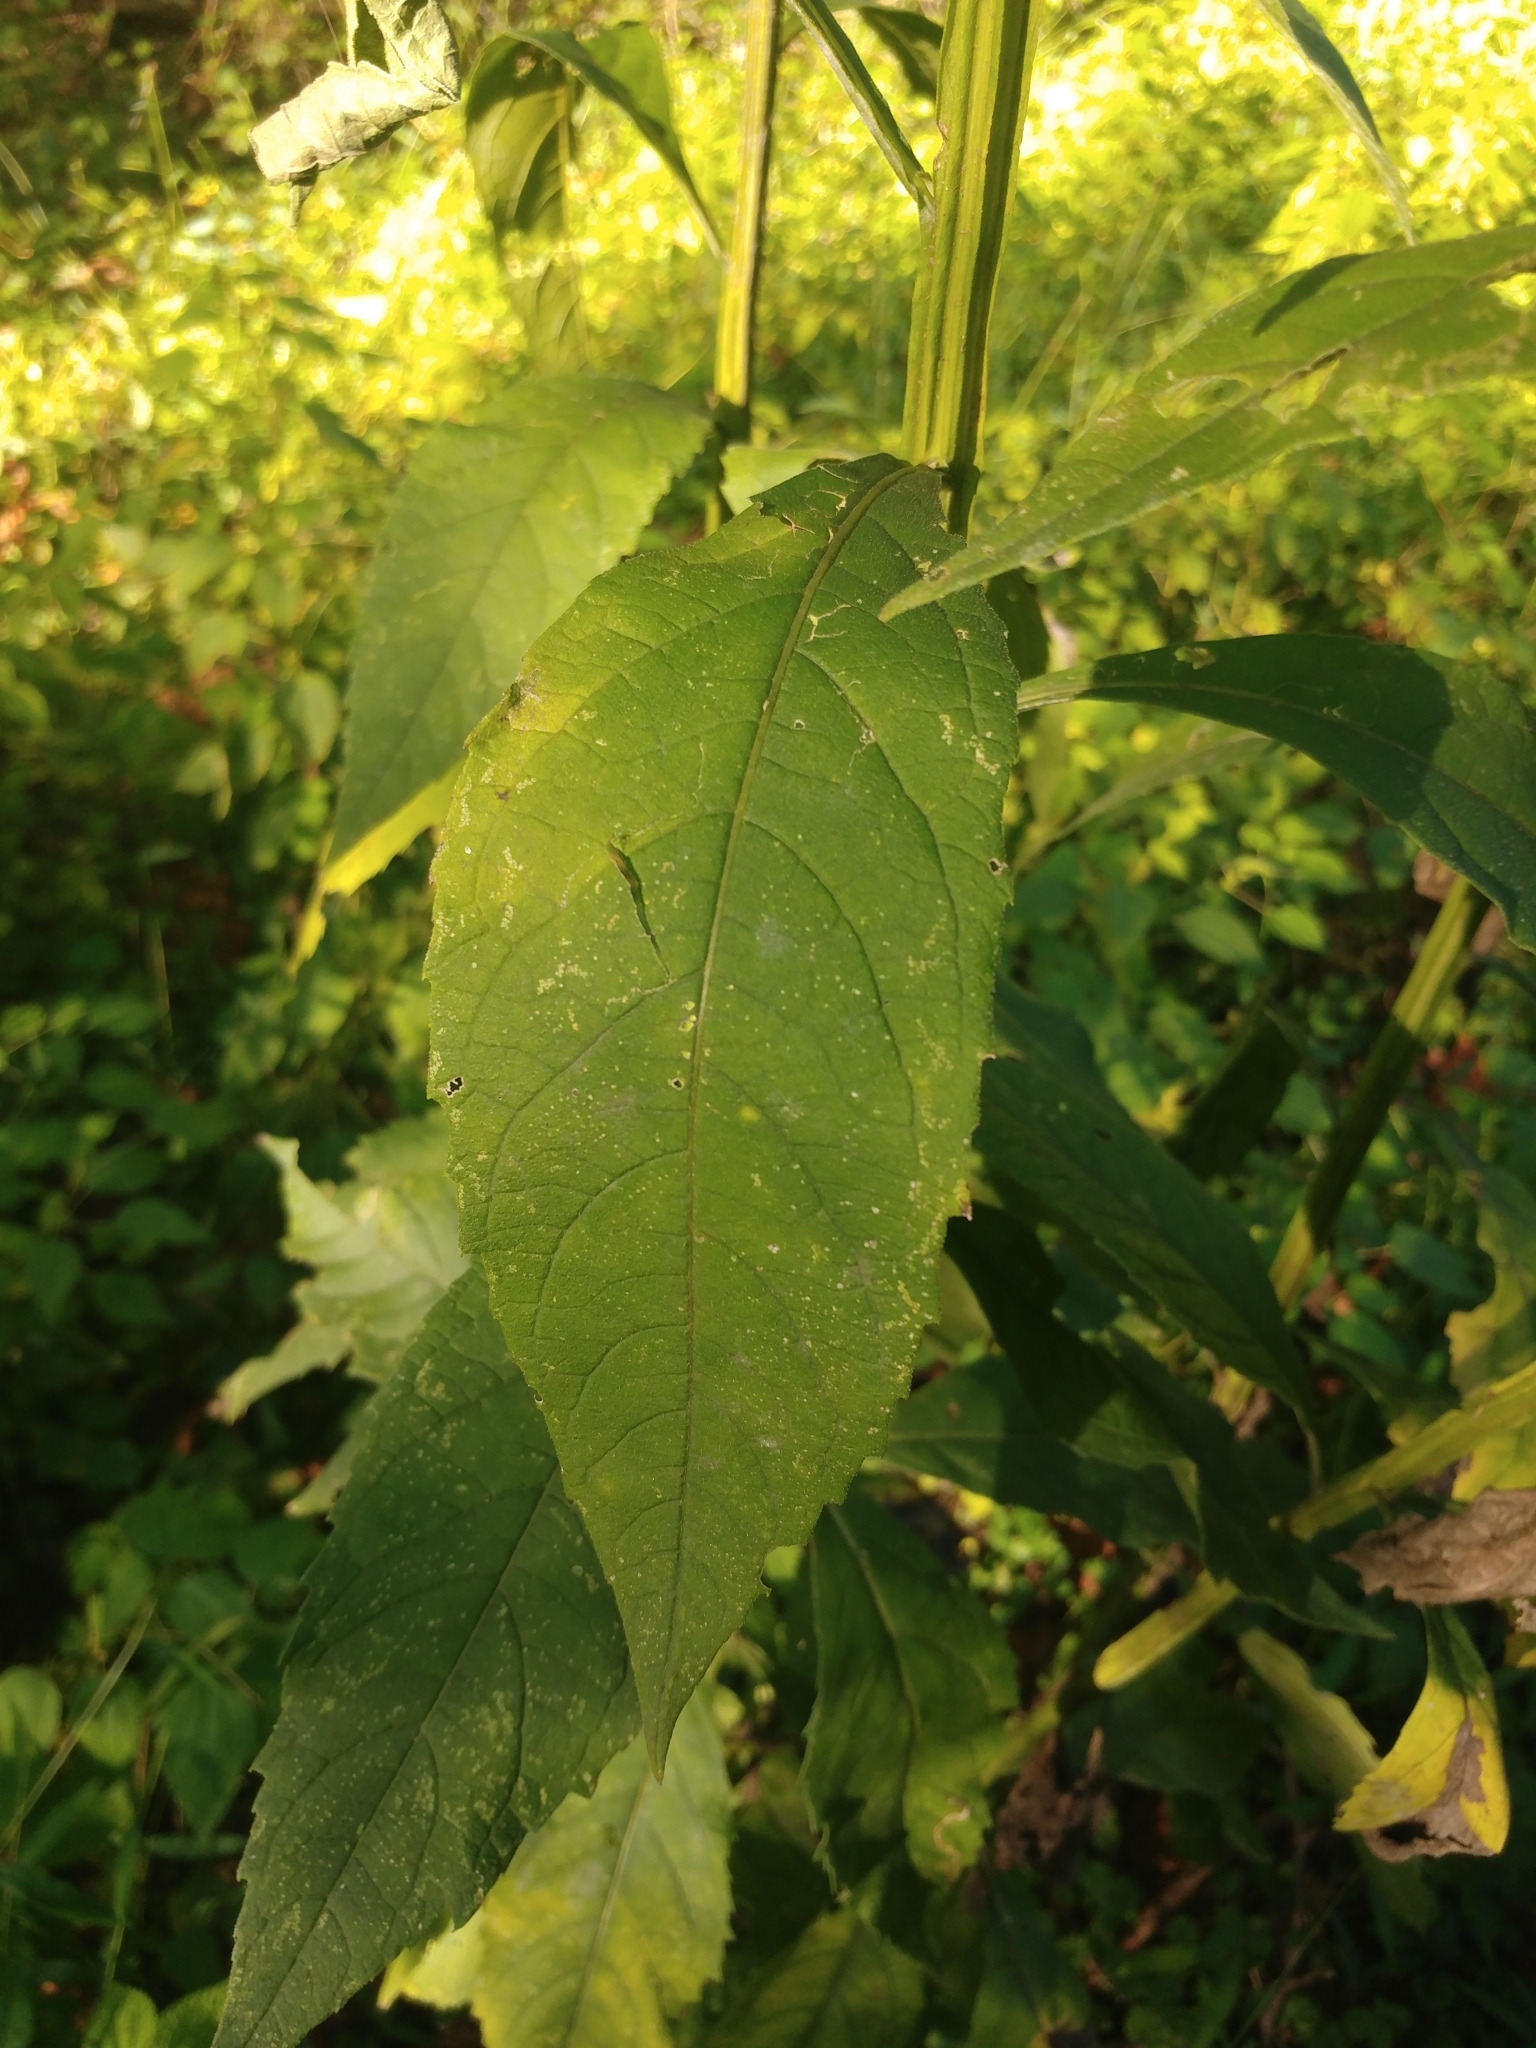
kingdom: Plantae
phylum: Tracheophyta
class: Magnoliopsida
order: Asterales
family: Asteraceae
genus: Verbesina
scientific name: Verbesina alternifolia
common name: Wingstem
